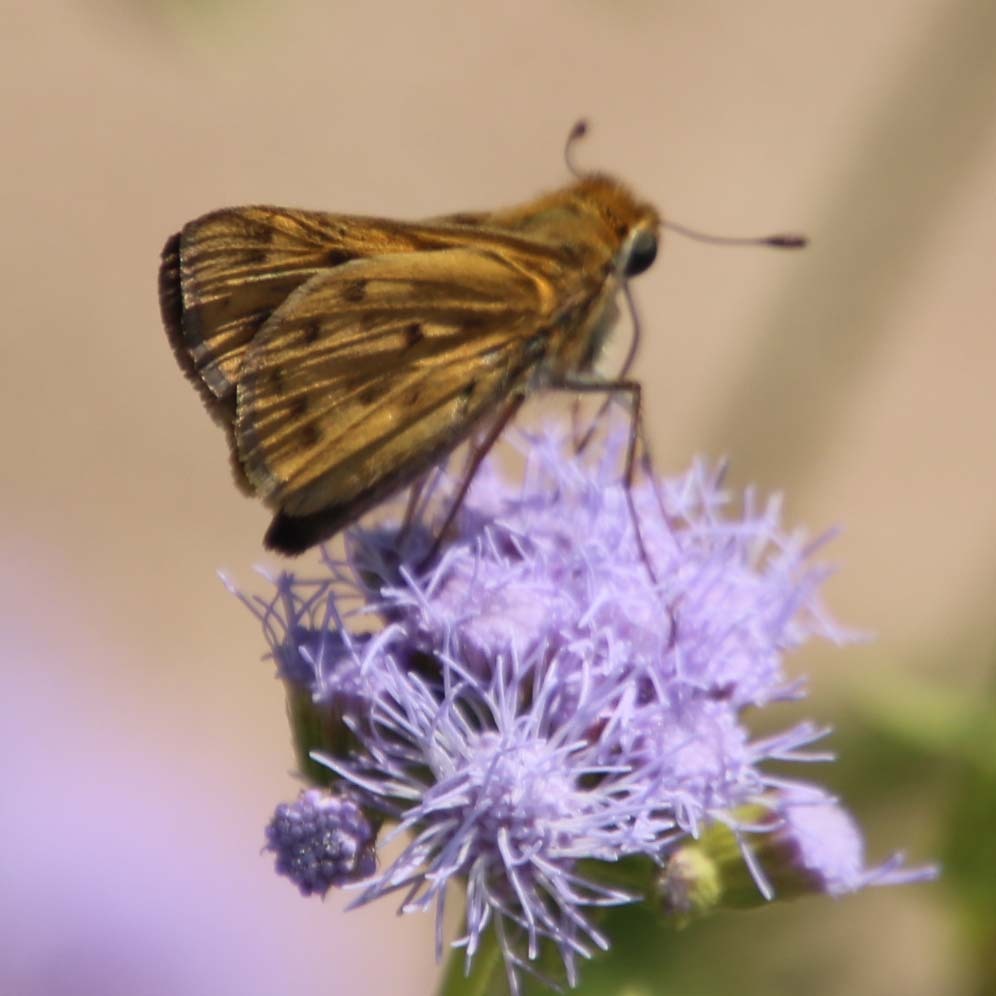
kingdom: Animalia
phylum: Arthropoda
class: Insecta
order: Lepidoptera
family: Hesperiidae
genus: Hylephila
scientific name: Hylephila phyleus
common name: Fiery skipper
